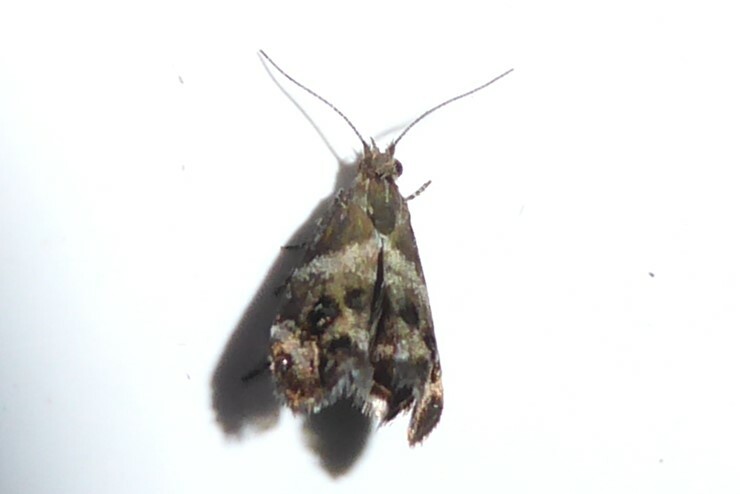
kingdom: Animalia
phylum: Arthropoda
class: Insecta
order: Lepidoptera
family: Choreutidae
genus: Tebenna
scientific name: Tebenna micalis
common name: Vagrant twitcher
